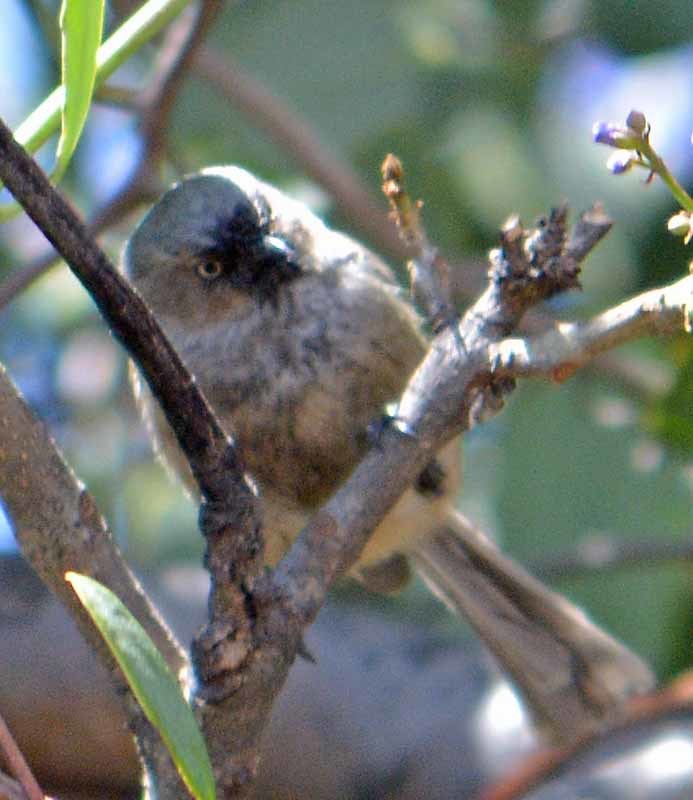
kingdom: Animalia
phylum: Chordata
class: Aves
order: Passeriformes
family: Aegithalidae
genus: Psaltriparus
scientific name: Psaltriparus minimus
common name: American bushtit
